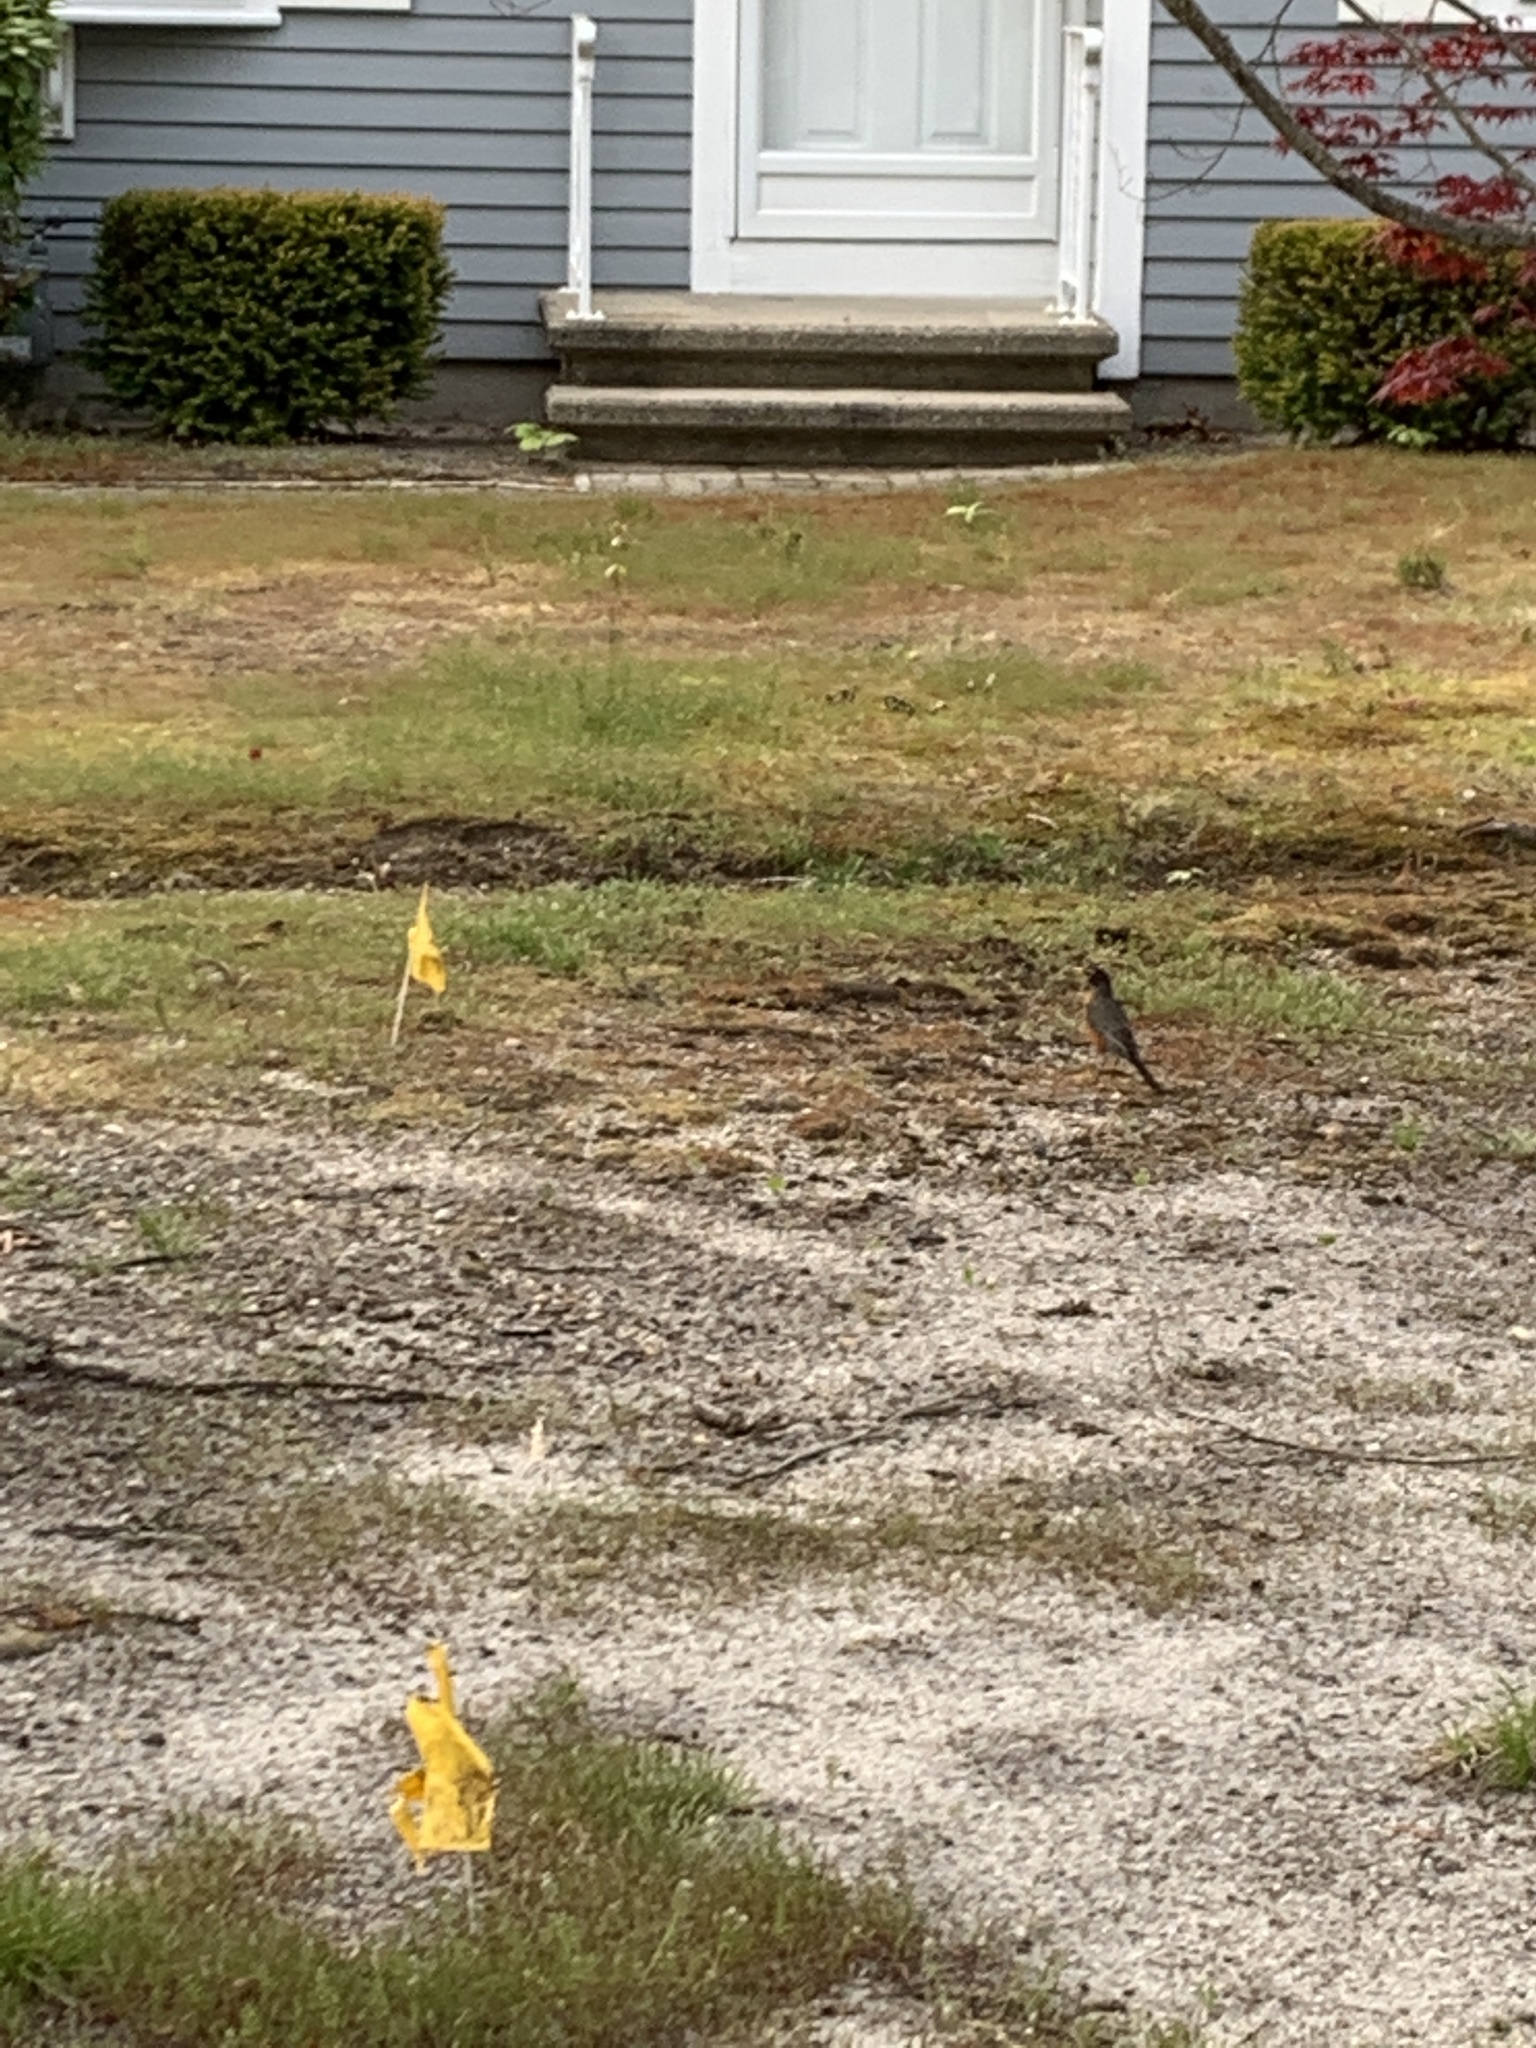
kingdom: Animalia
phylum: Chordata
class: Aves
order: Passeriformes
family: Turdidae
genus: Turdus
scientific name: Turdus migratorius
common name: American robin
